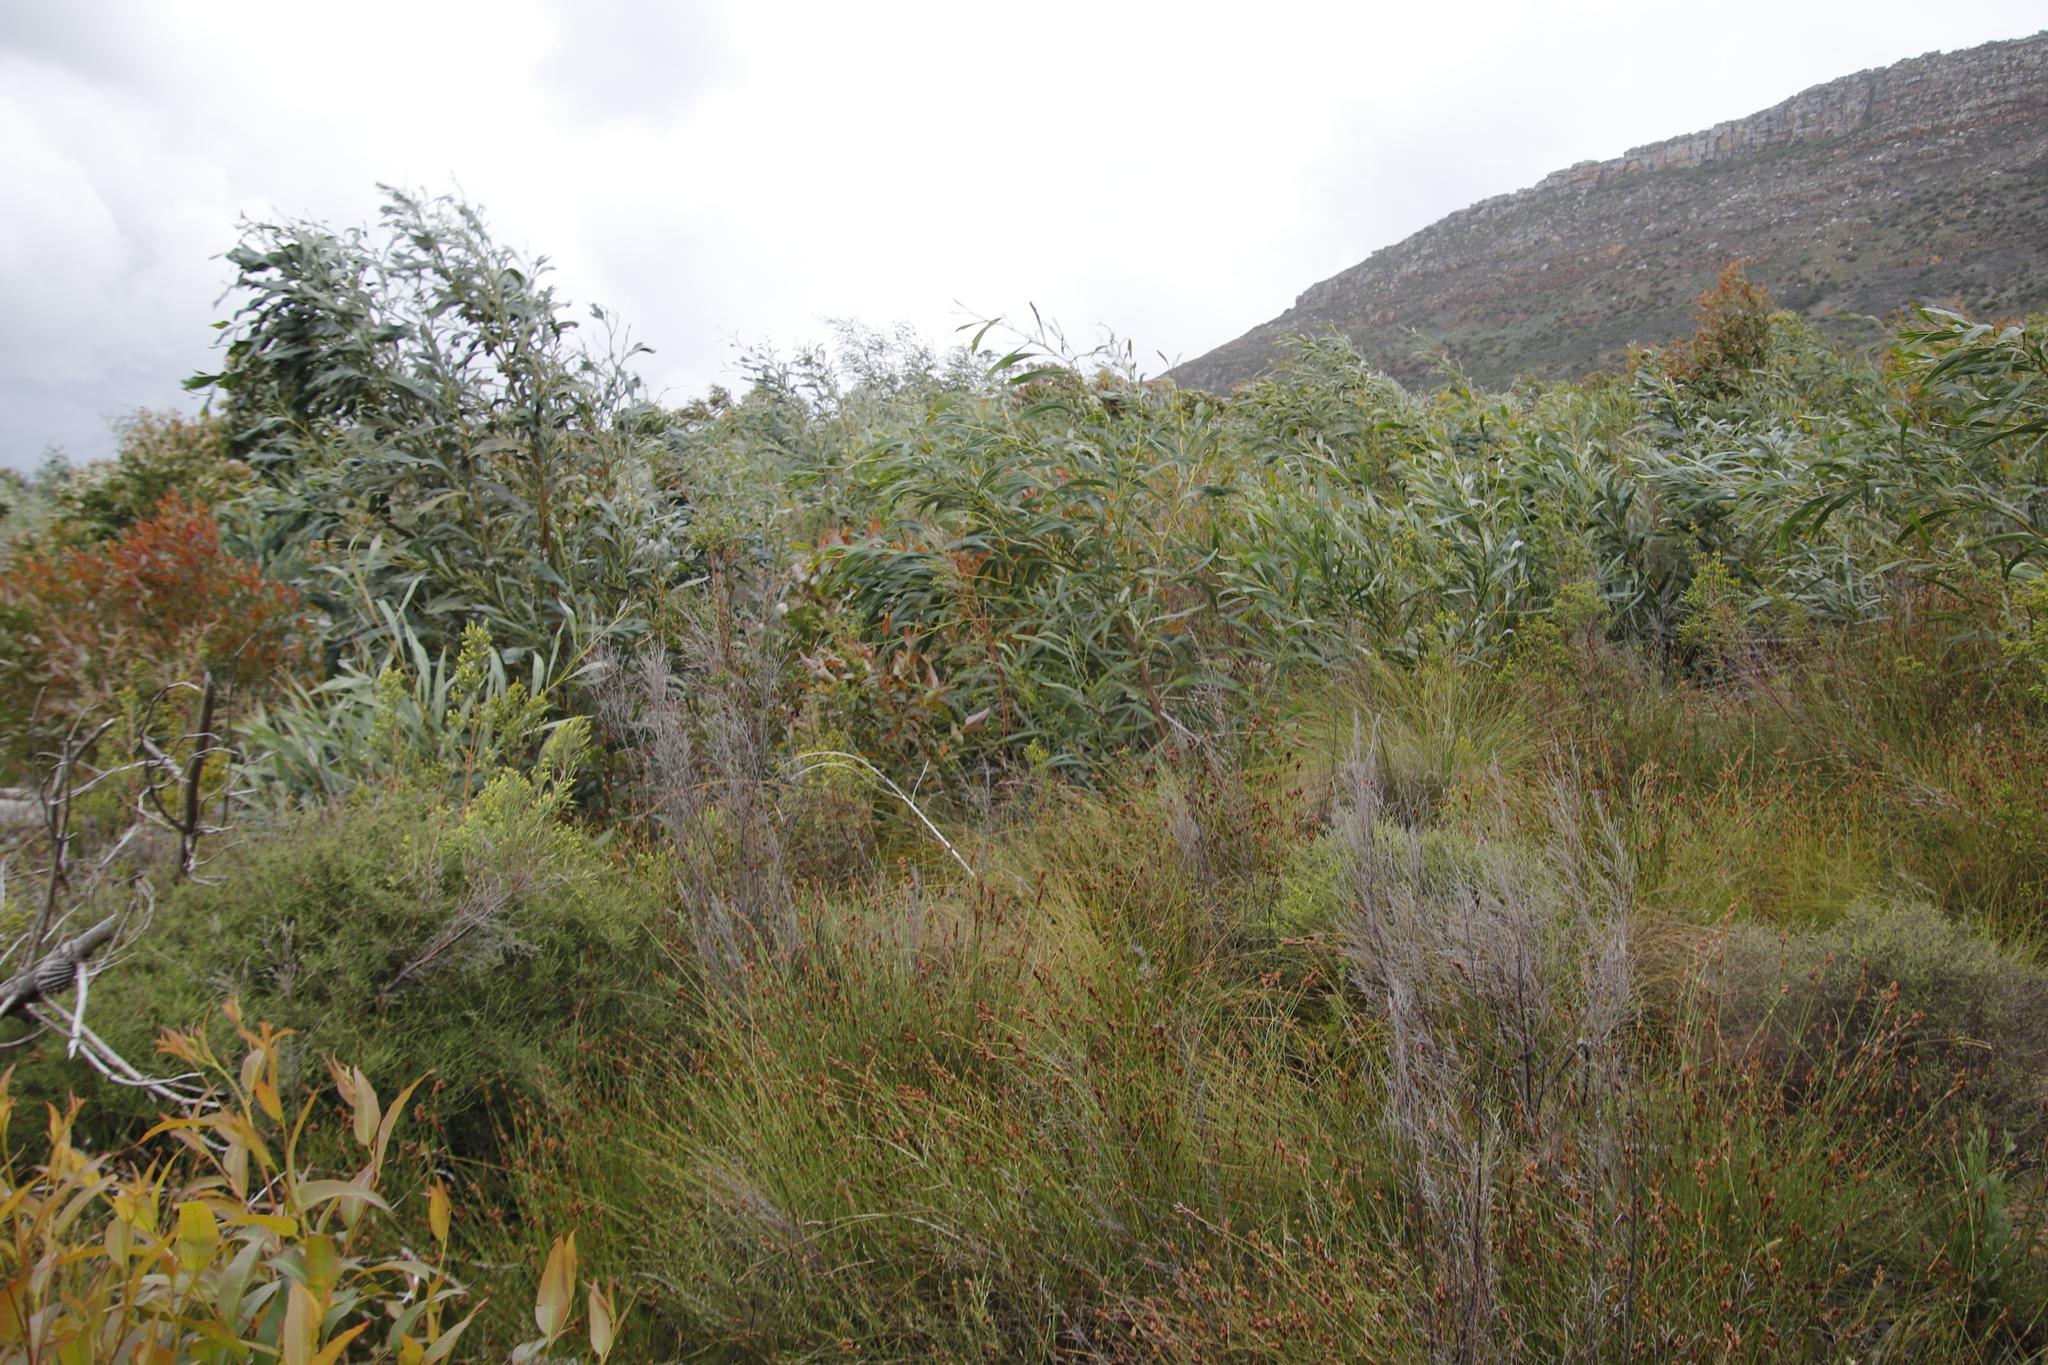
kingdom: Plantae
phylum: Tracheophyta
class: Magnoliopsida
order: Fabales
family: Fabaceae
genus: Acacia
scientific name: Acacia saligna
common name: Orange wattle
